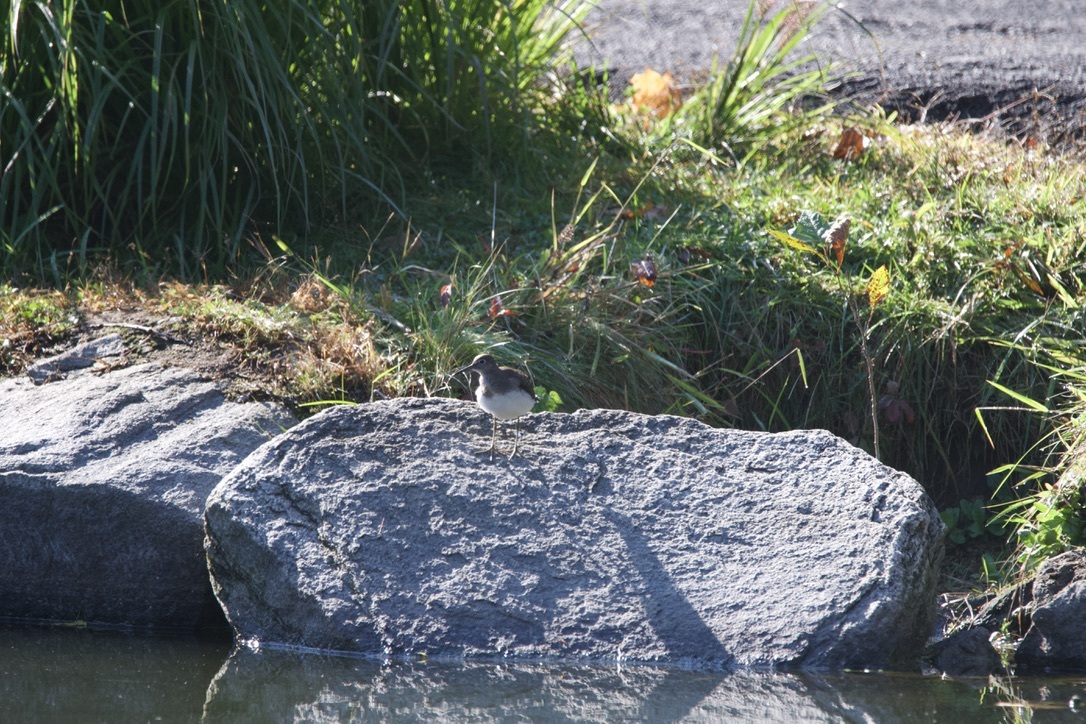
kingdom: Animalia
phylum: Chordata
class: Aves
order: Charadriiformes
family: Scolopacidae
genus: Tringa
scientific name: Tringa solitaria
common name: Solitary sandpiper
